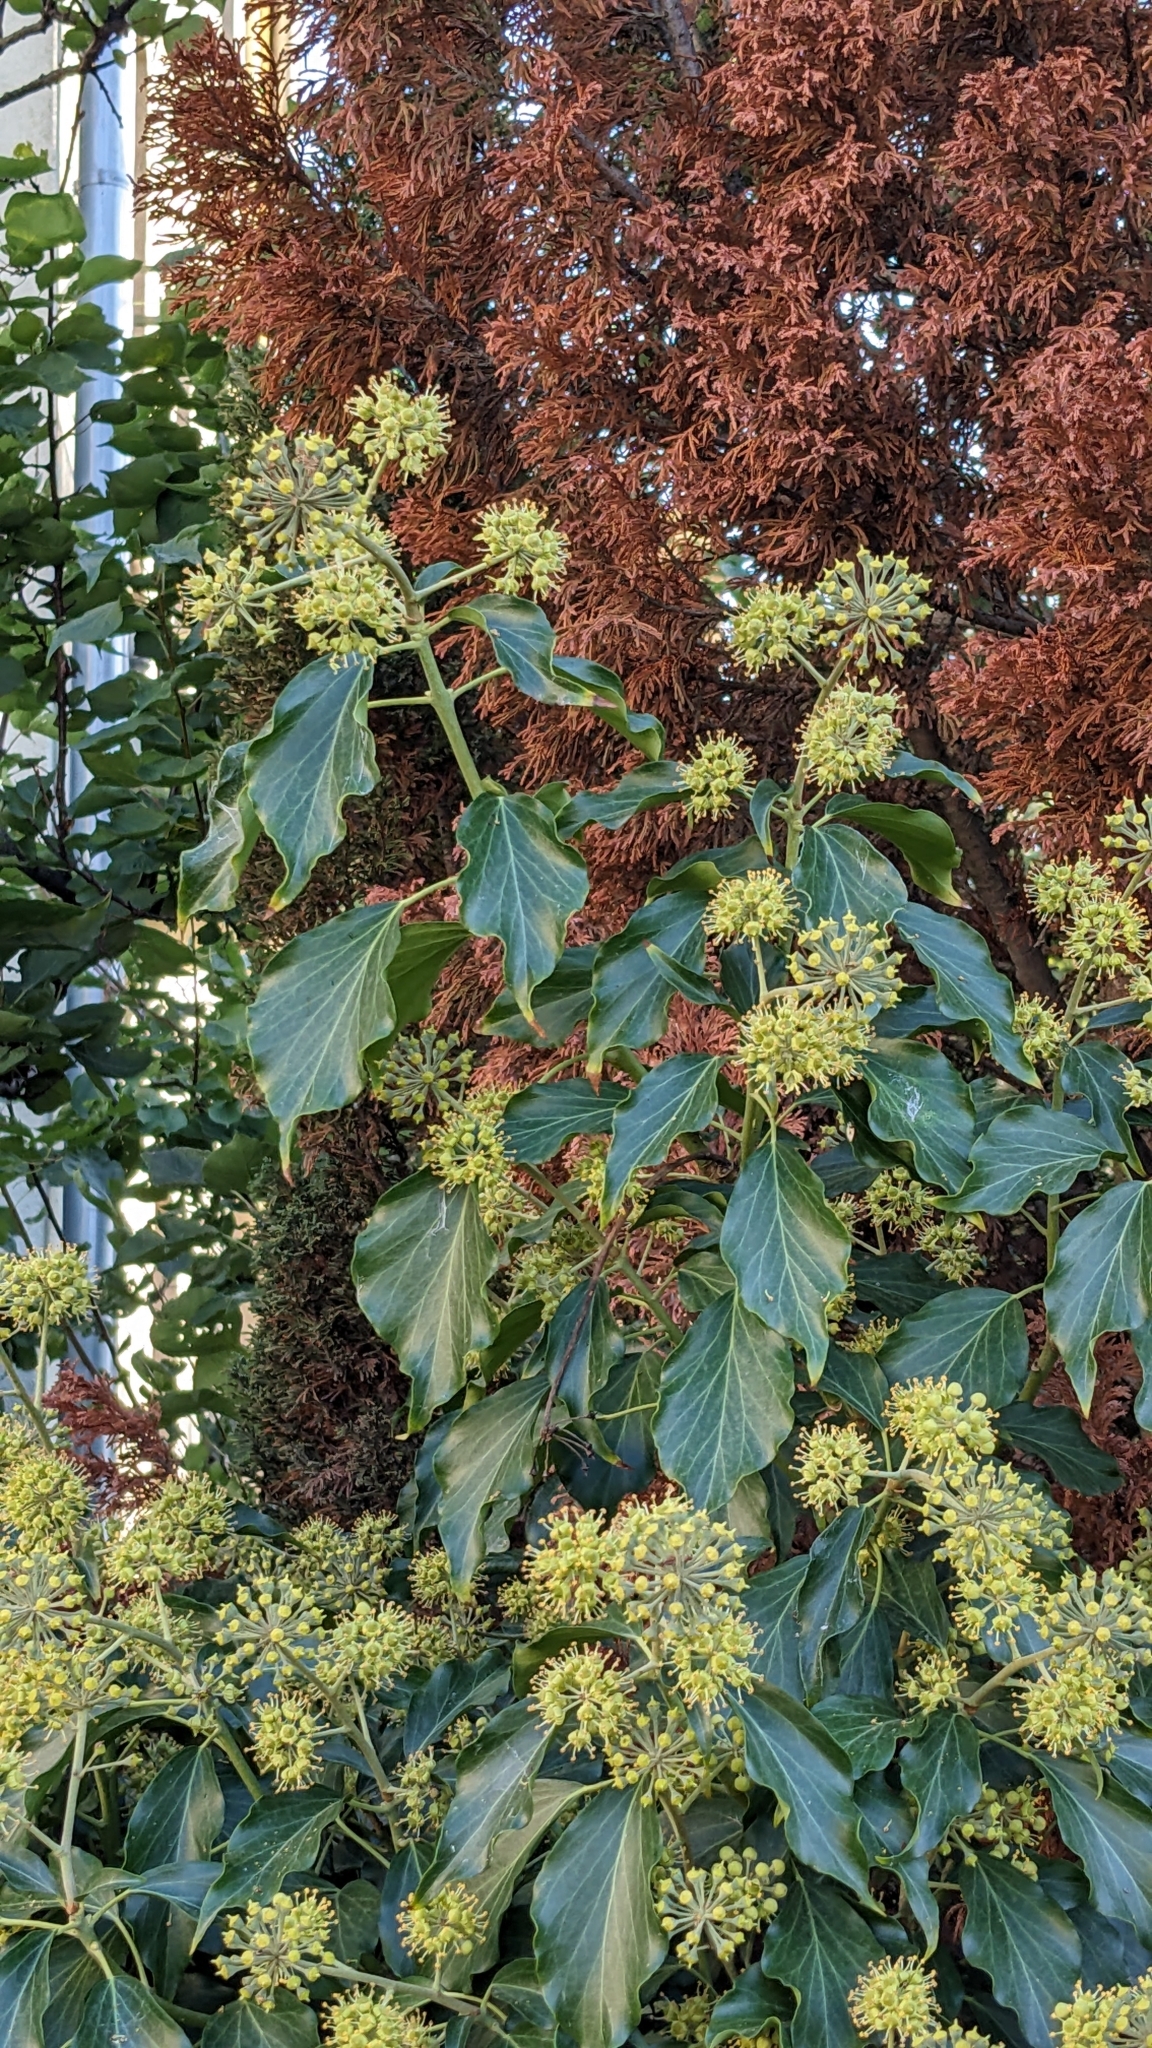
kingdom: Plantae
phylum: Tracheophyta
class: Magnoliopsida
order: Apiales
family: Araliaceae
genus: Hedera
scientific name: Hedera helix
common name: Ivy
